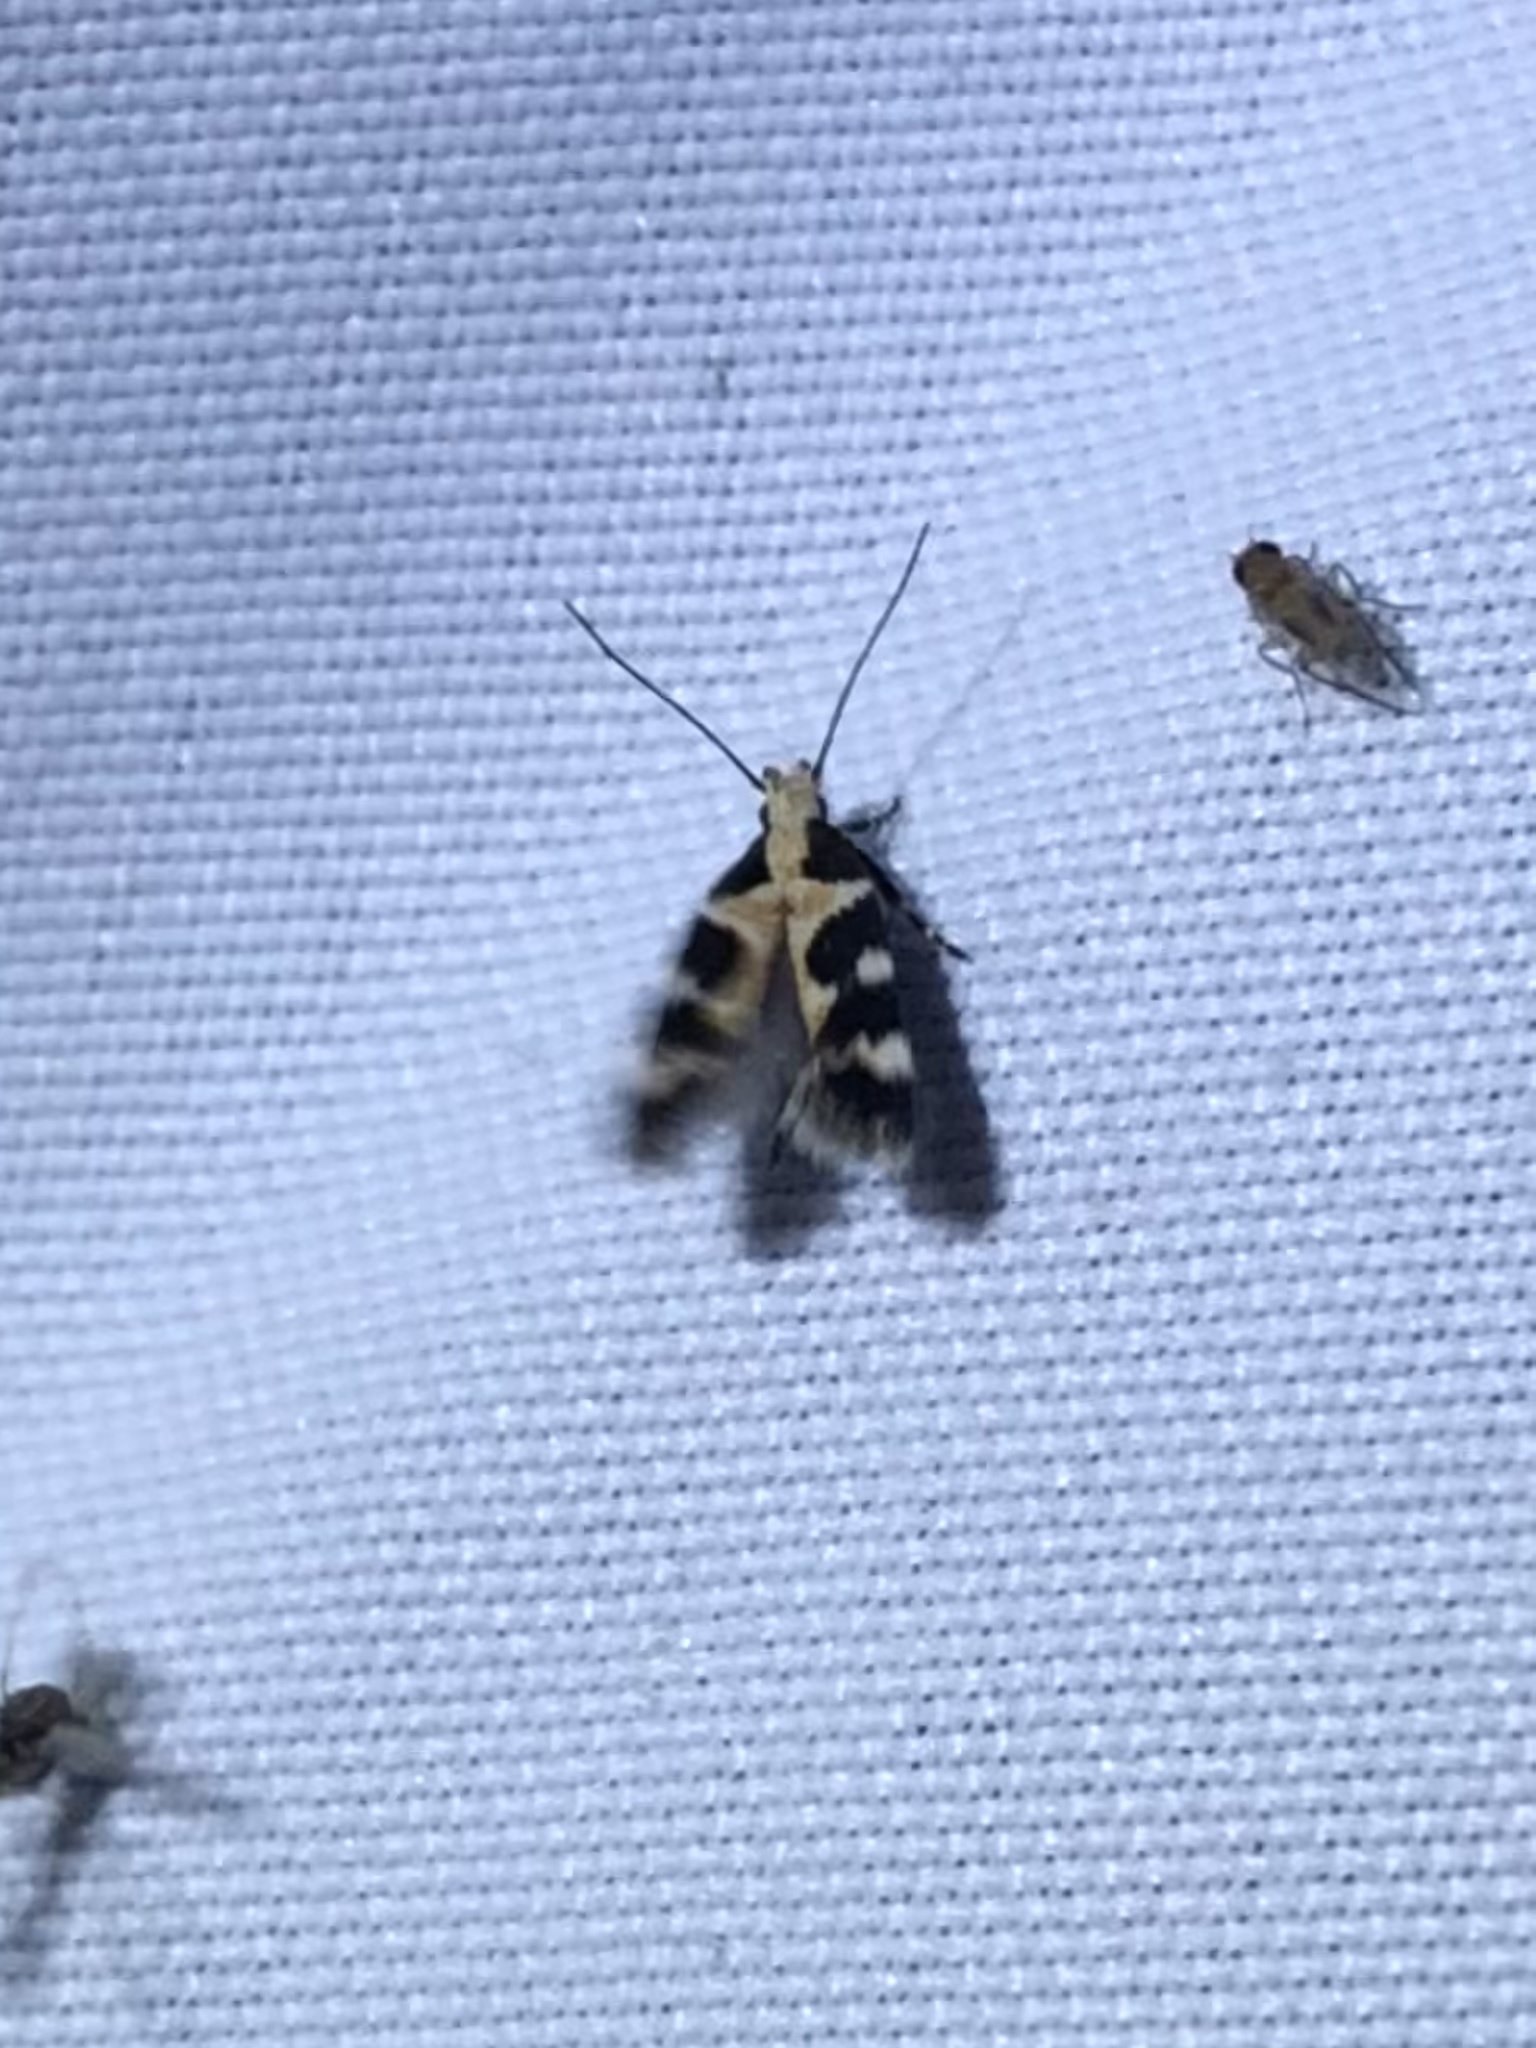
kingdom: Animalia
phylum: Arthropoda
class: Insecta
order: Lepidoptera
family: Gelechiidae
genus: Stegasta
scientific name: Stegasta capitella
